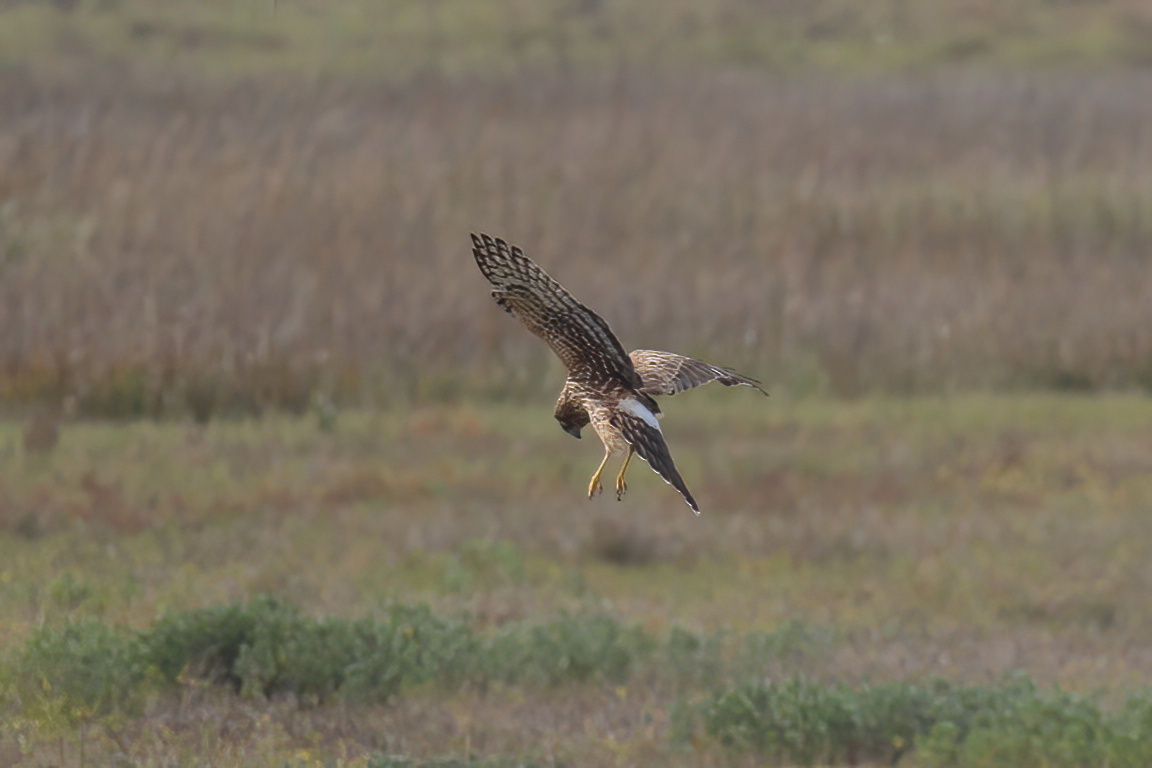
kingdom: Animalia
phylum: Chordata
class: Aves
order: Accipitriformes
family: Accipitridae
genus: Circus
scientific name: Circus cyaneus
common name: Hen harrier
